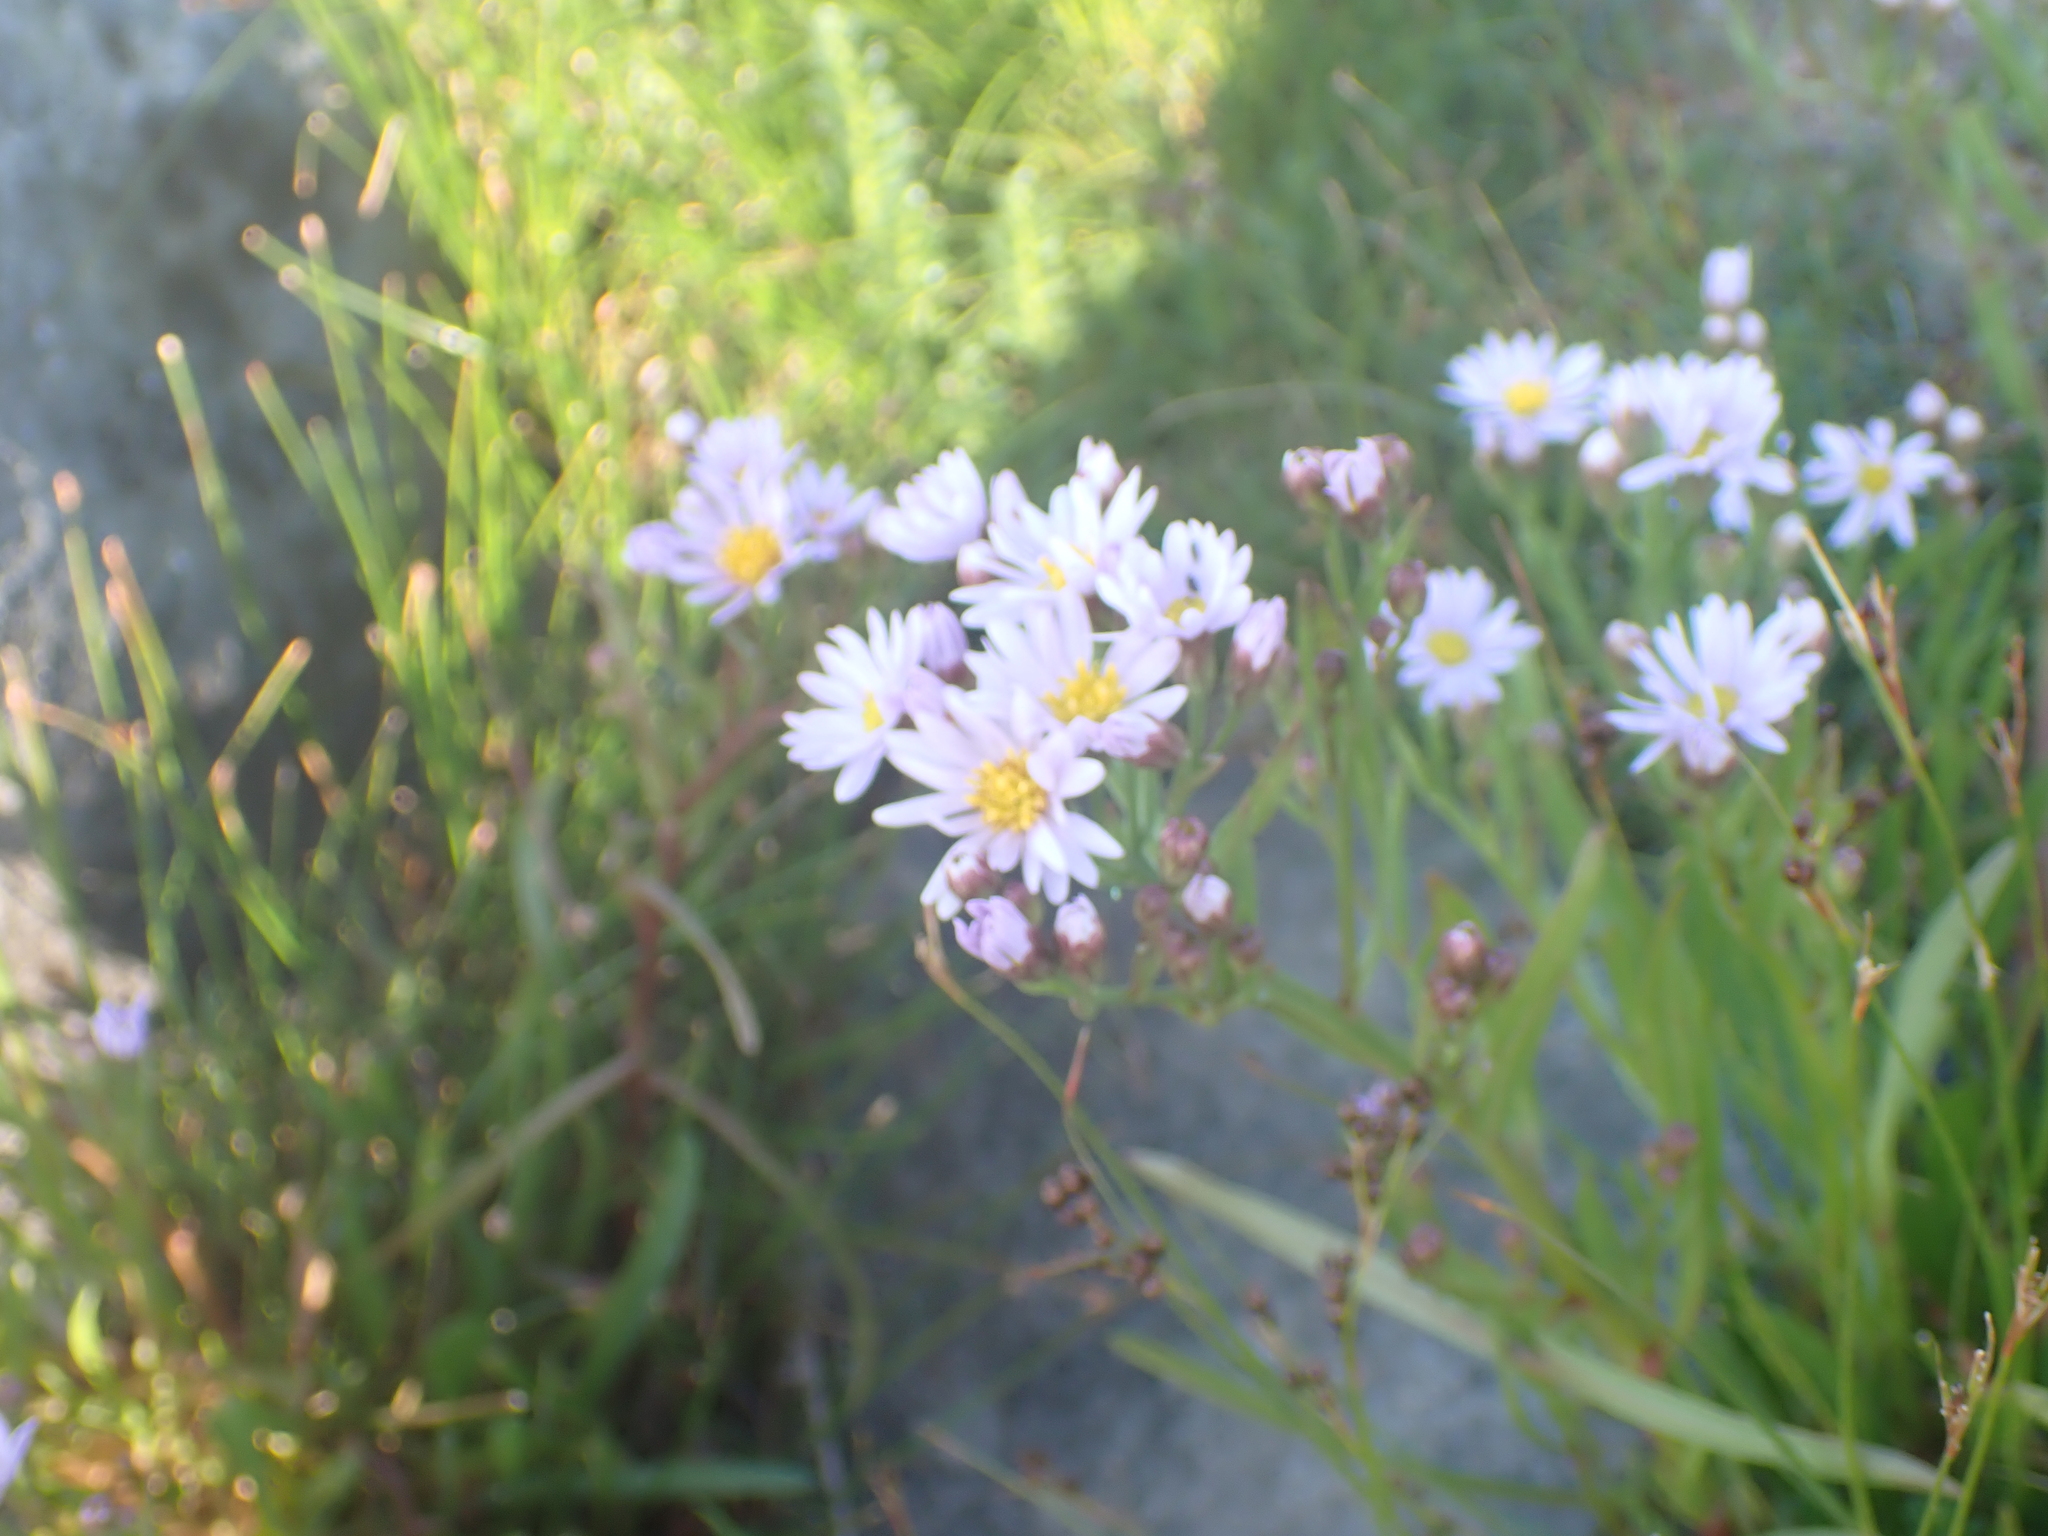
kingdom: Plantae
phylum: Tracheophyta
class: Magnoliopsida
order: Asterales
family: Asteraceae
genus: Tripolium
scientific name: Tripolium pannonicum
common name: Sea aster
